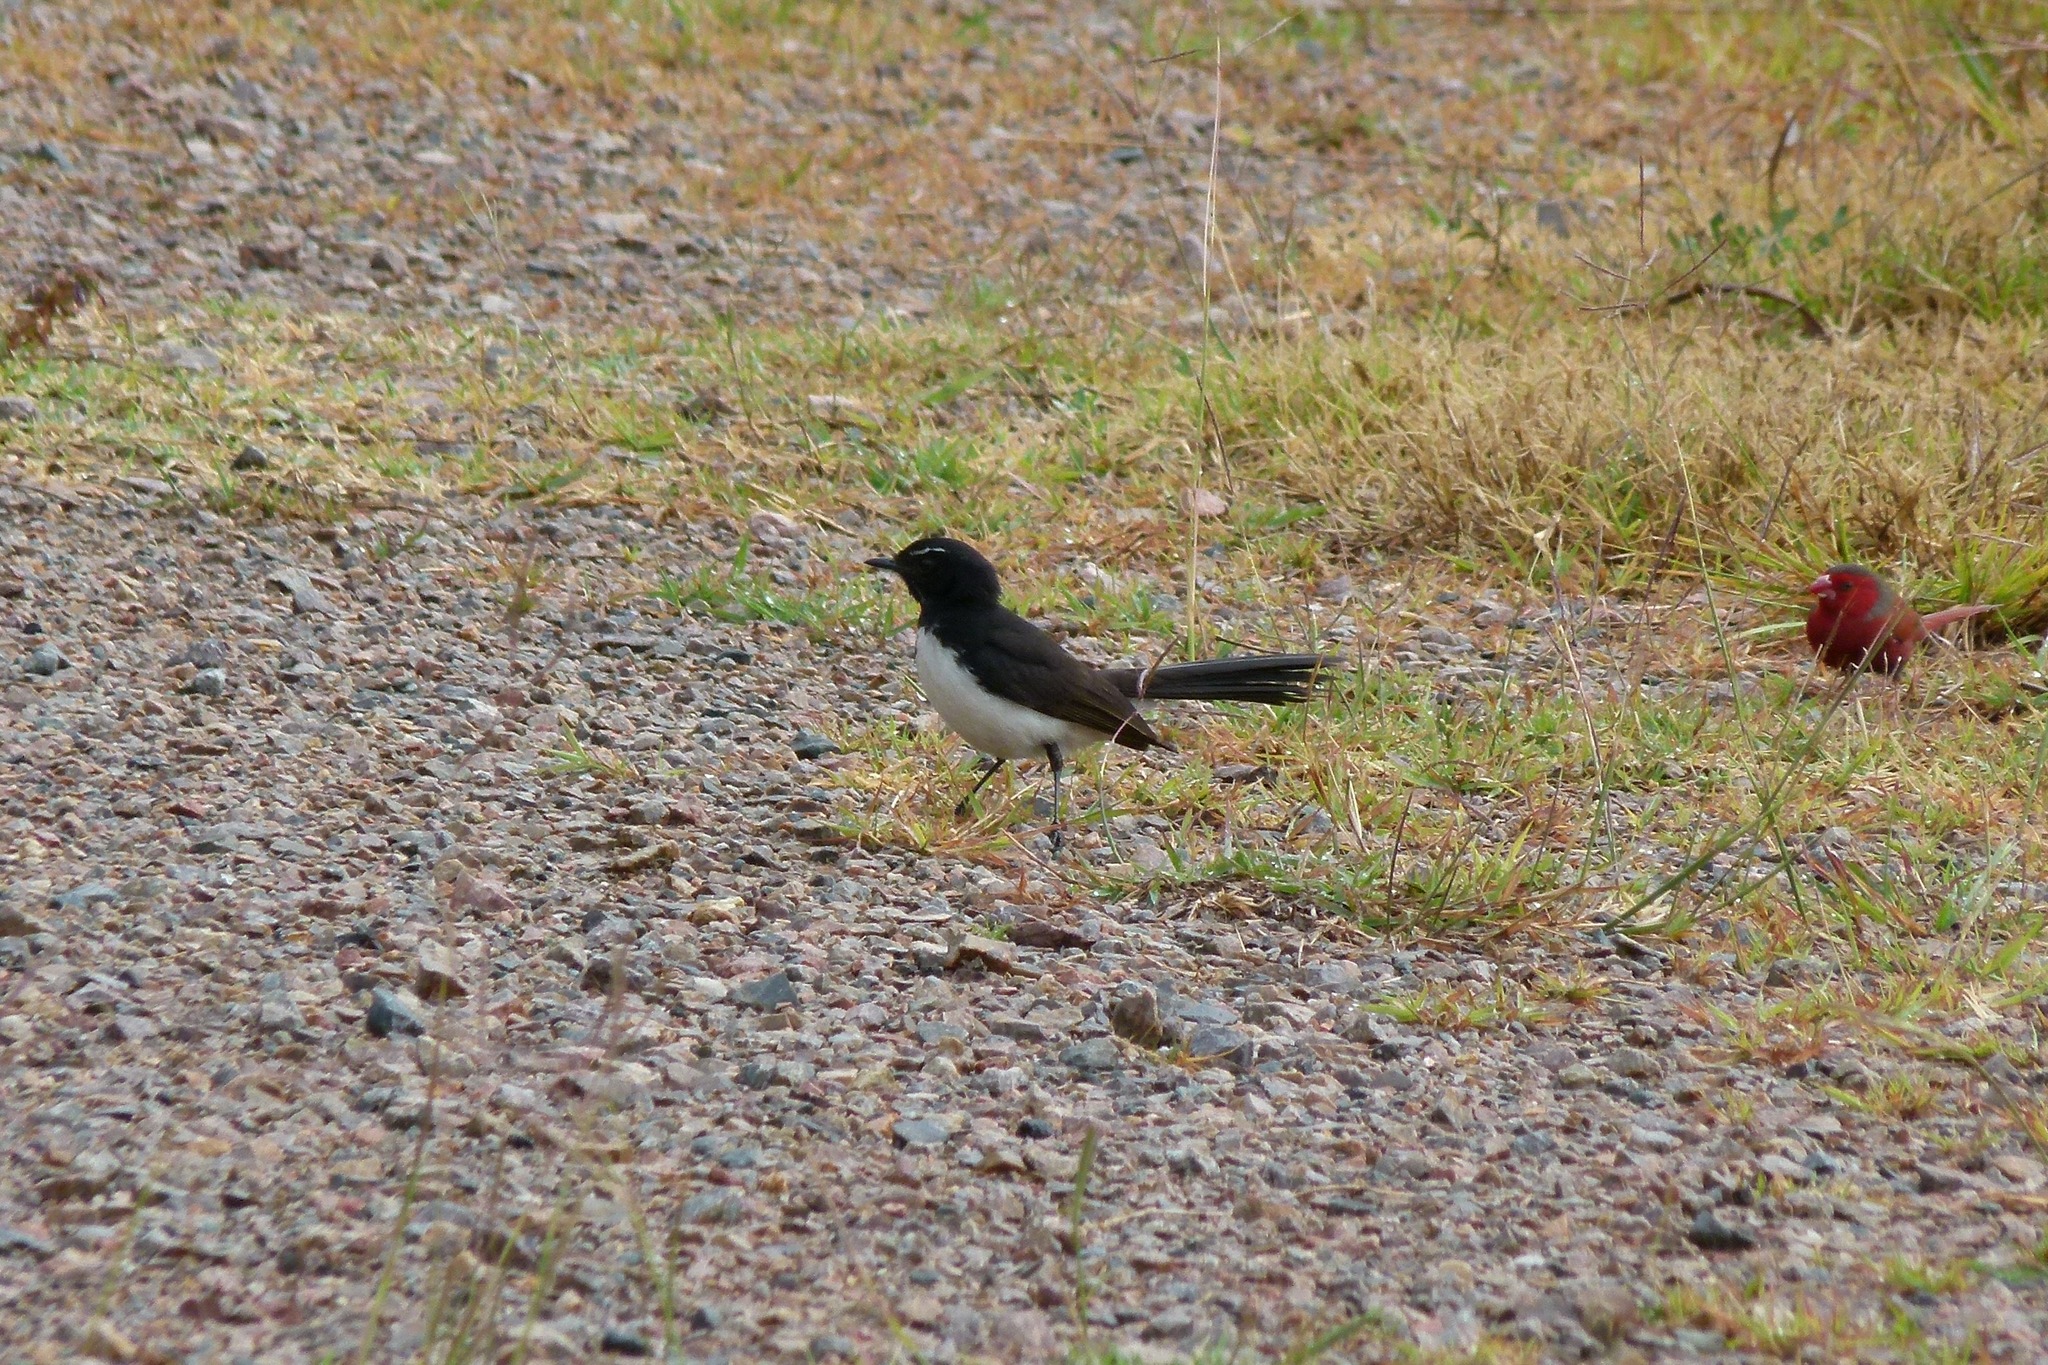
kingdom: Animalia
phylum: Chordata
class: Aves
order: Passeriformes
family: Rhipiduridae
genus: Rhipidura
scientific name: Rhipidura leucophrys
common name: Willie wagtail
